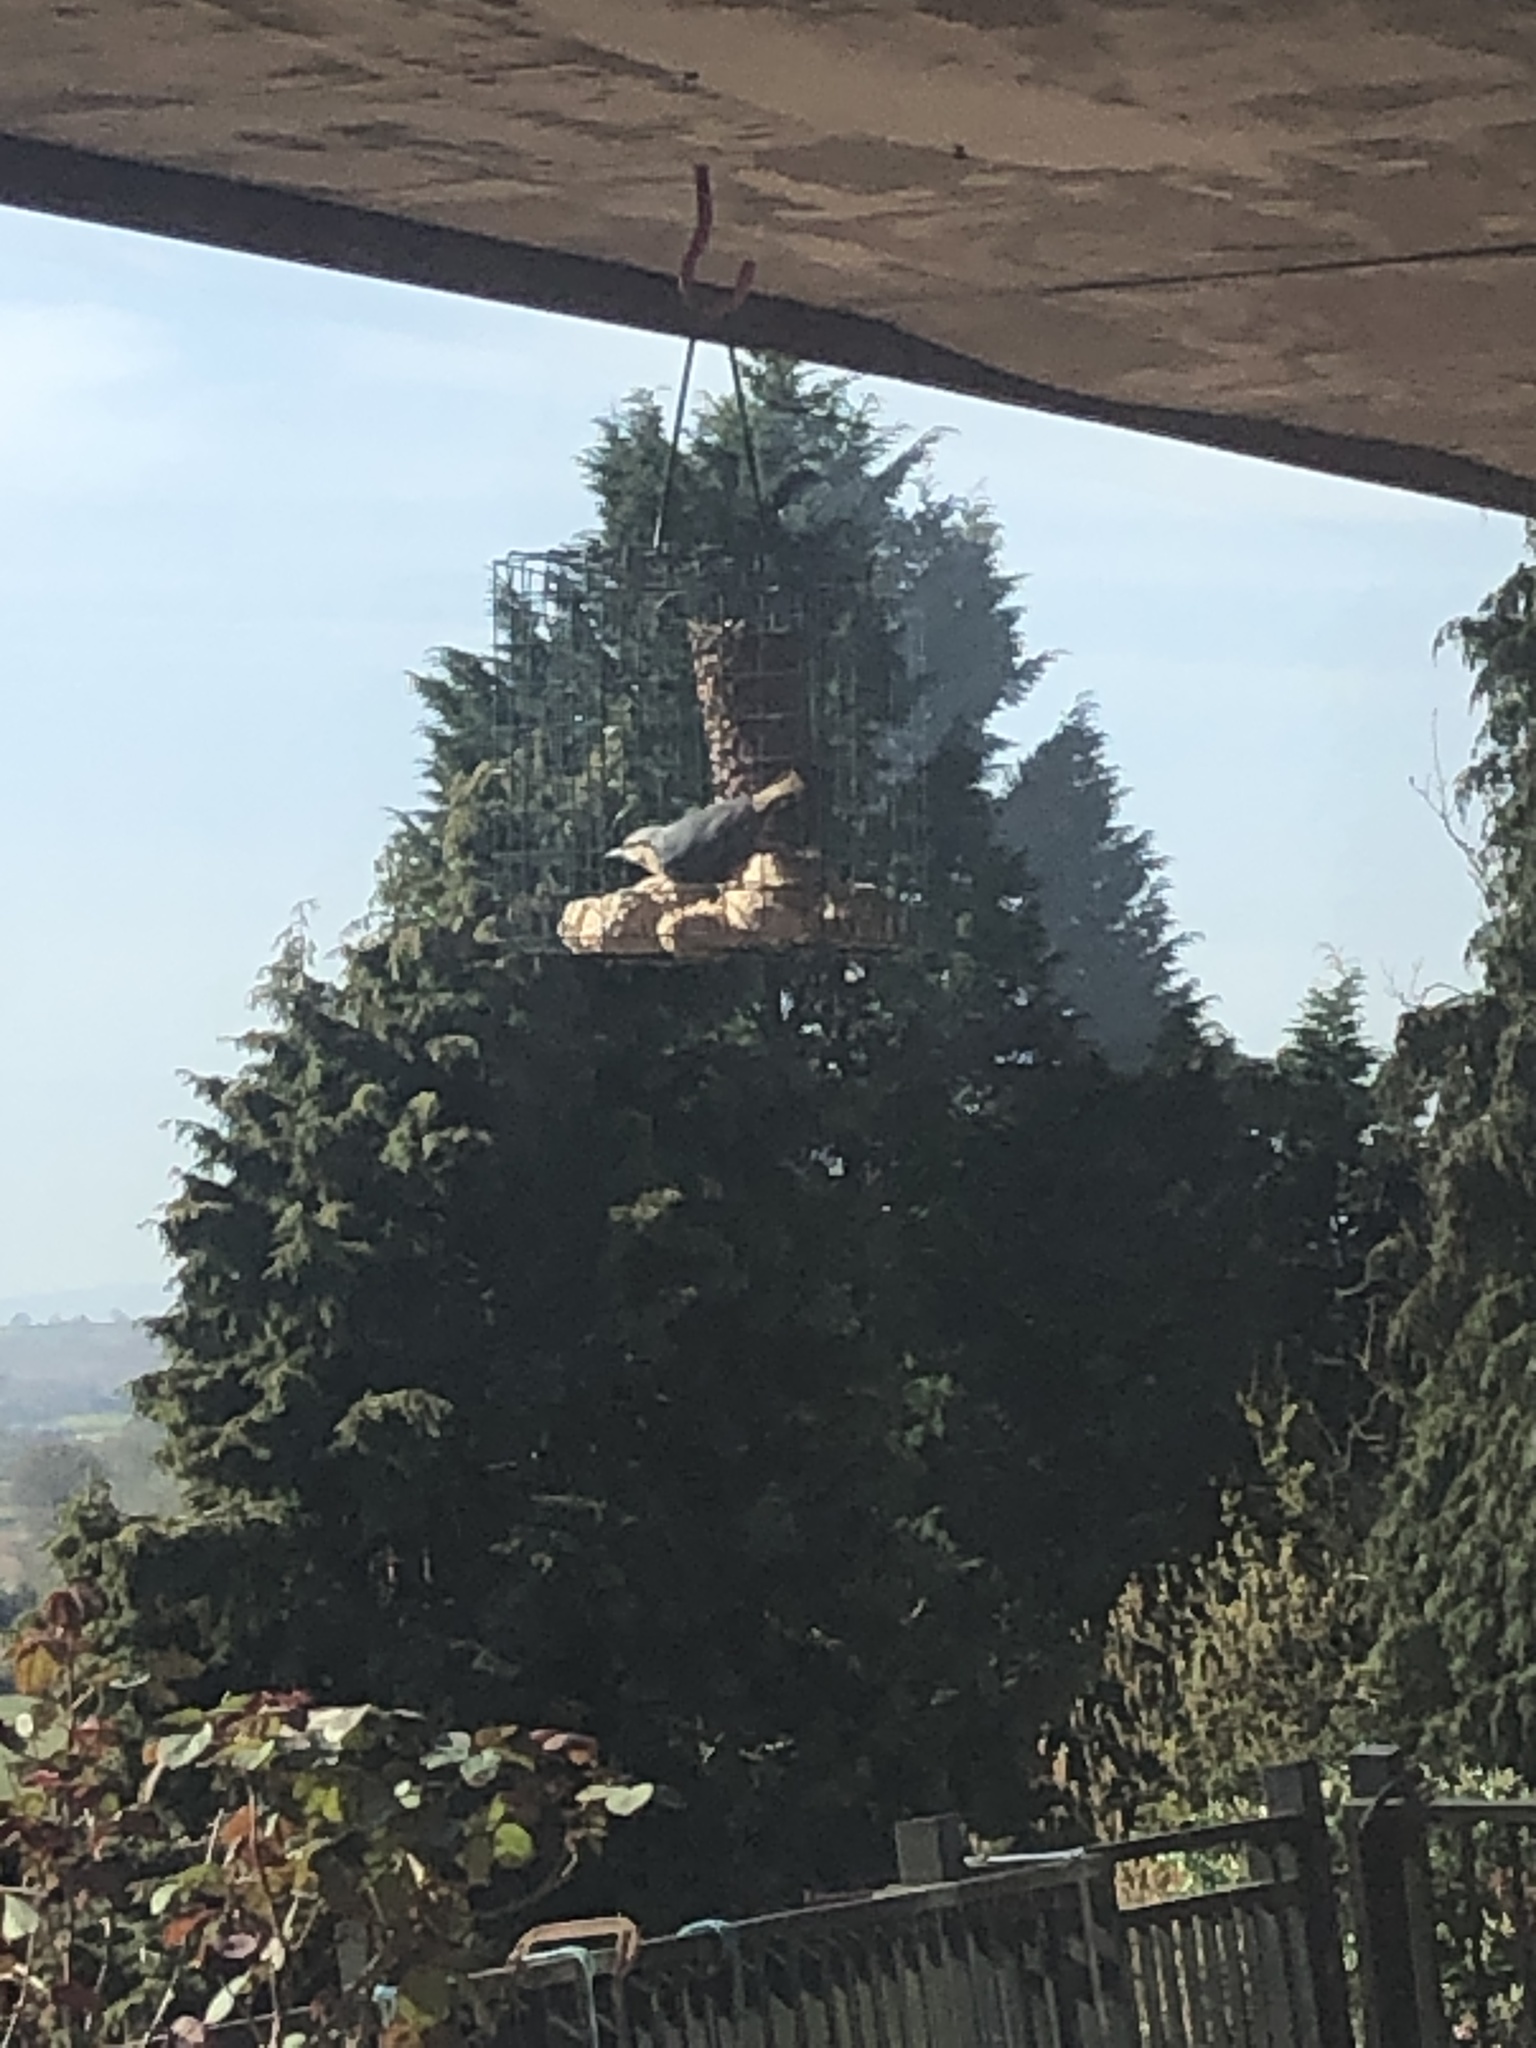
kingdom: Animalia
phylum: Chordata
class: Aves
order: Passeriformes
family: Sittidae
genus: Sitta
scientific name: Sitta europaea
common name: Eurasian nuthatch
